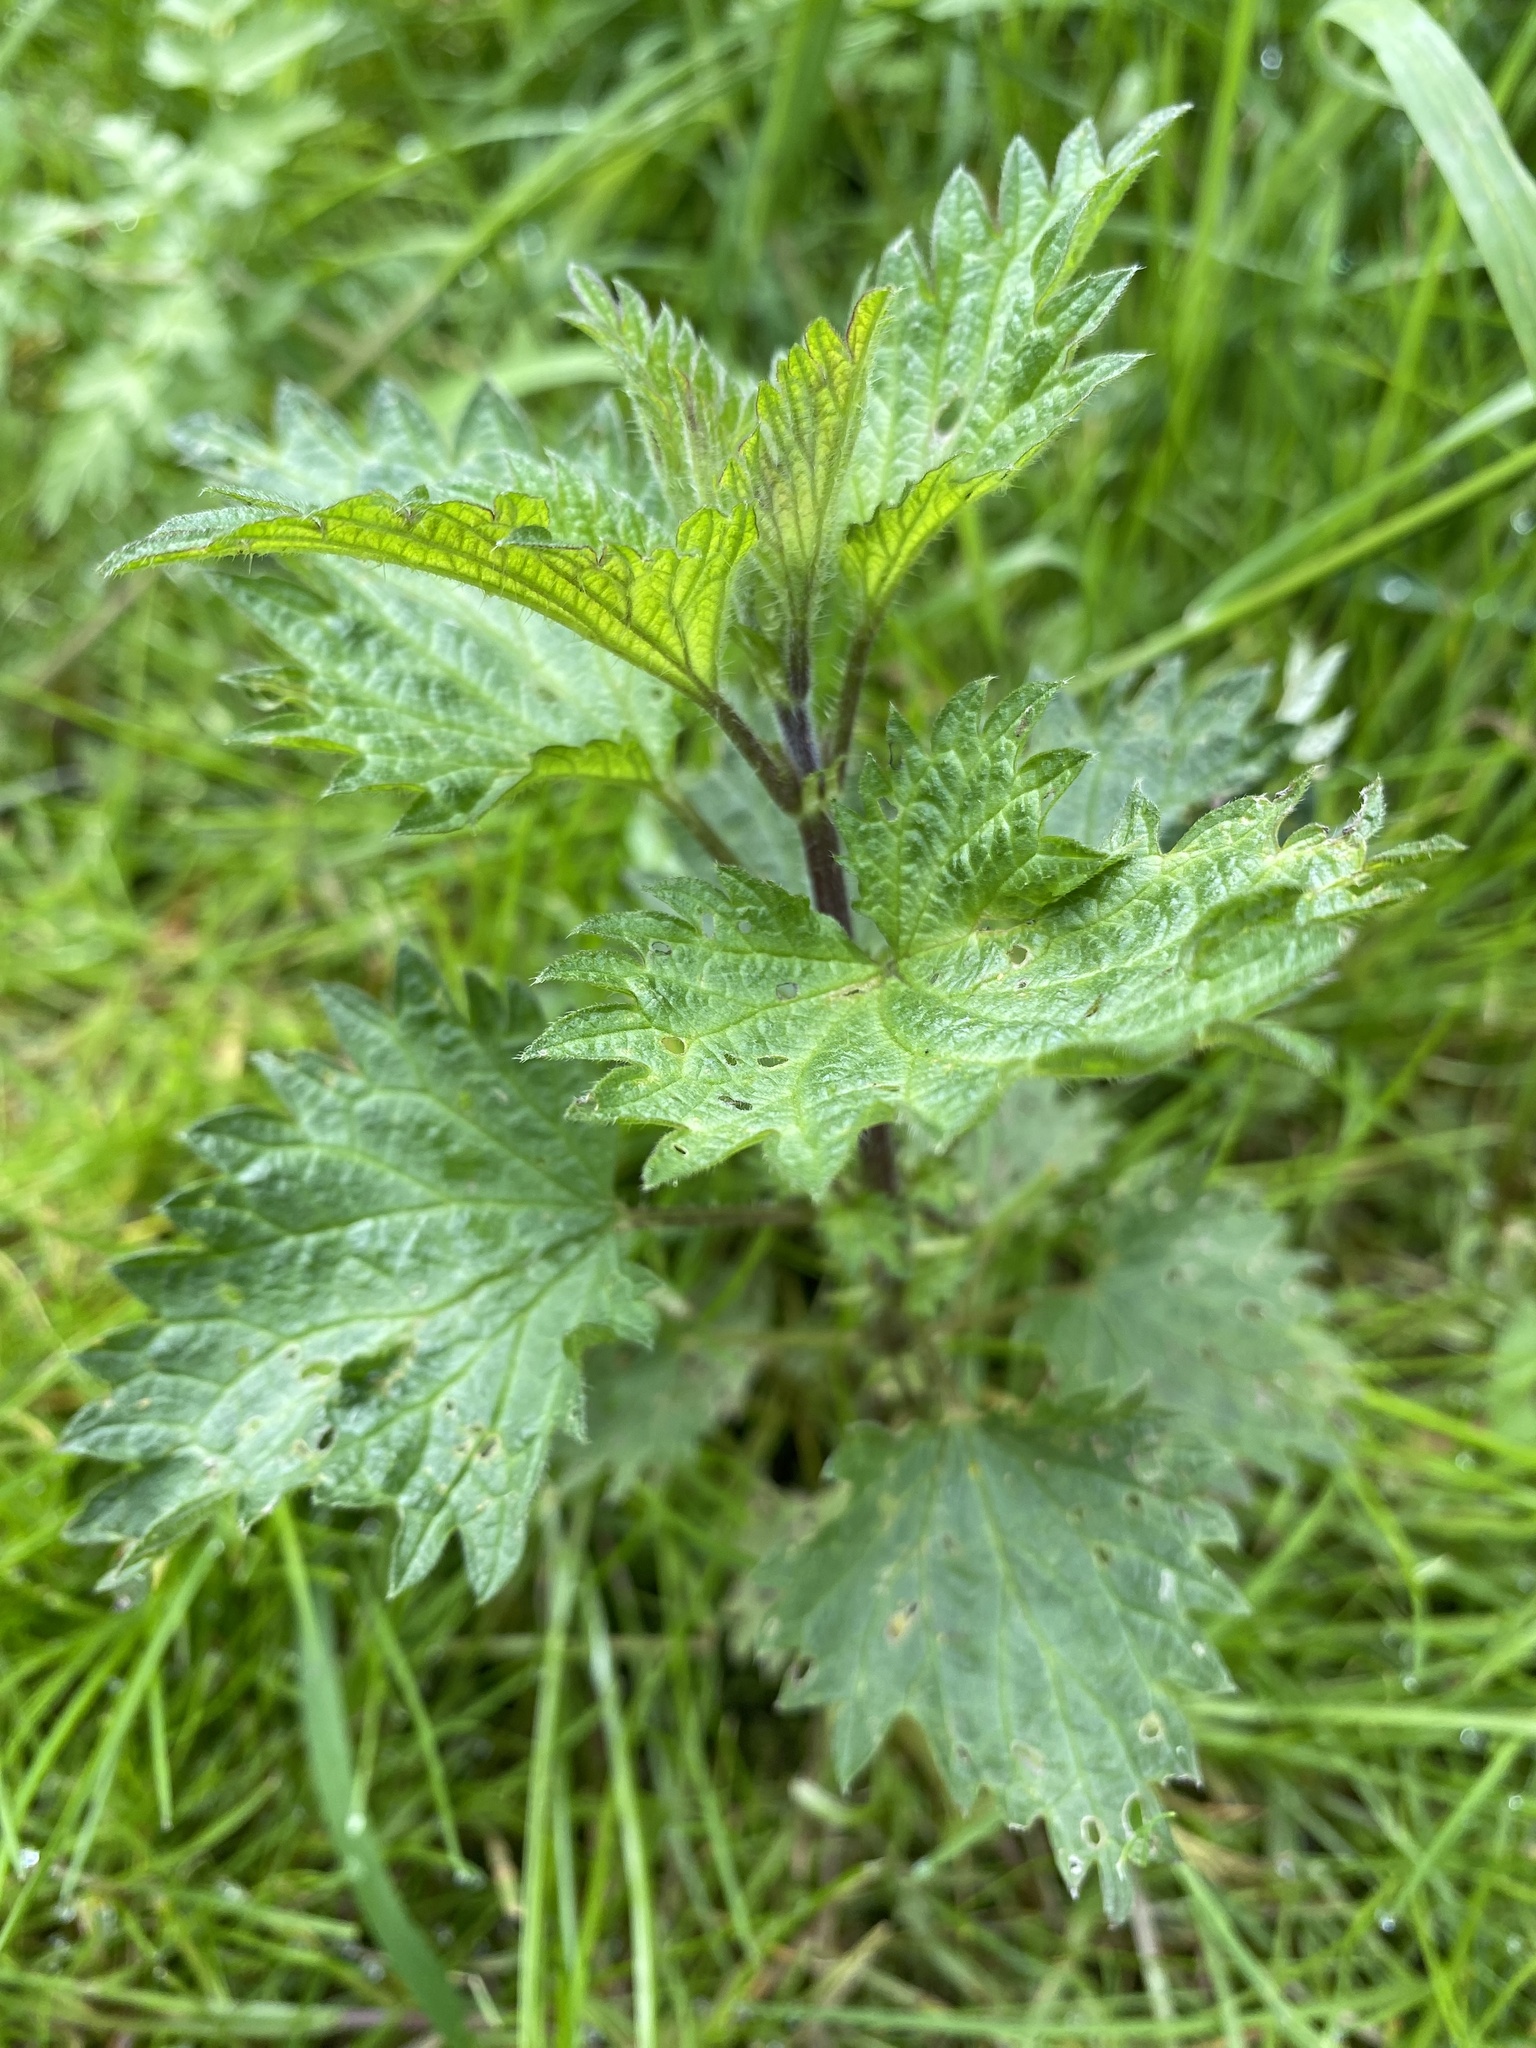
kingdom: Plantae
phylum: Tracheophyta
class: Magnoliopsida
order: Rosales
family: Urticaceae
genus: Urtica
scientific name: Urtica dioica
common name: Common nettle
